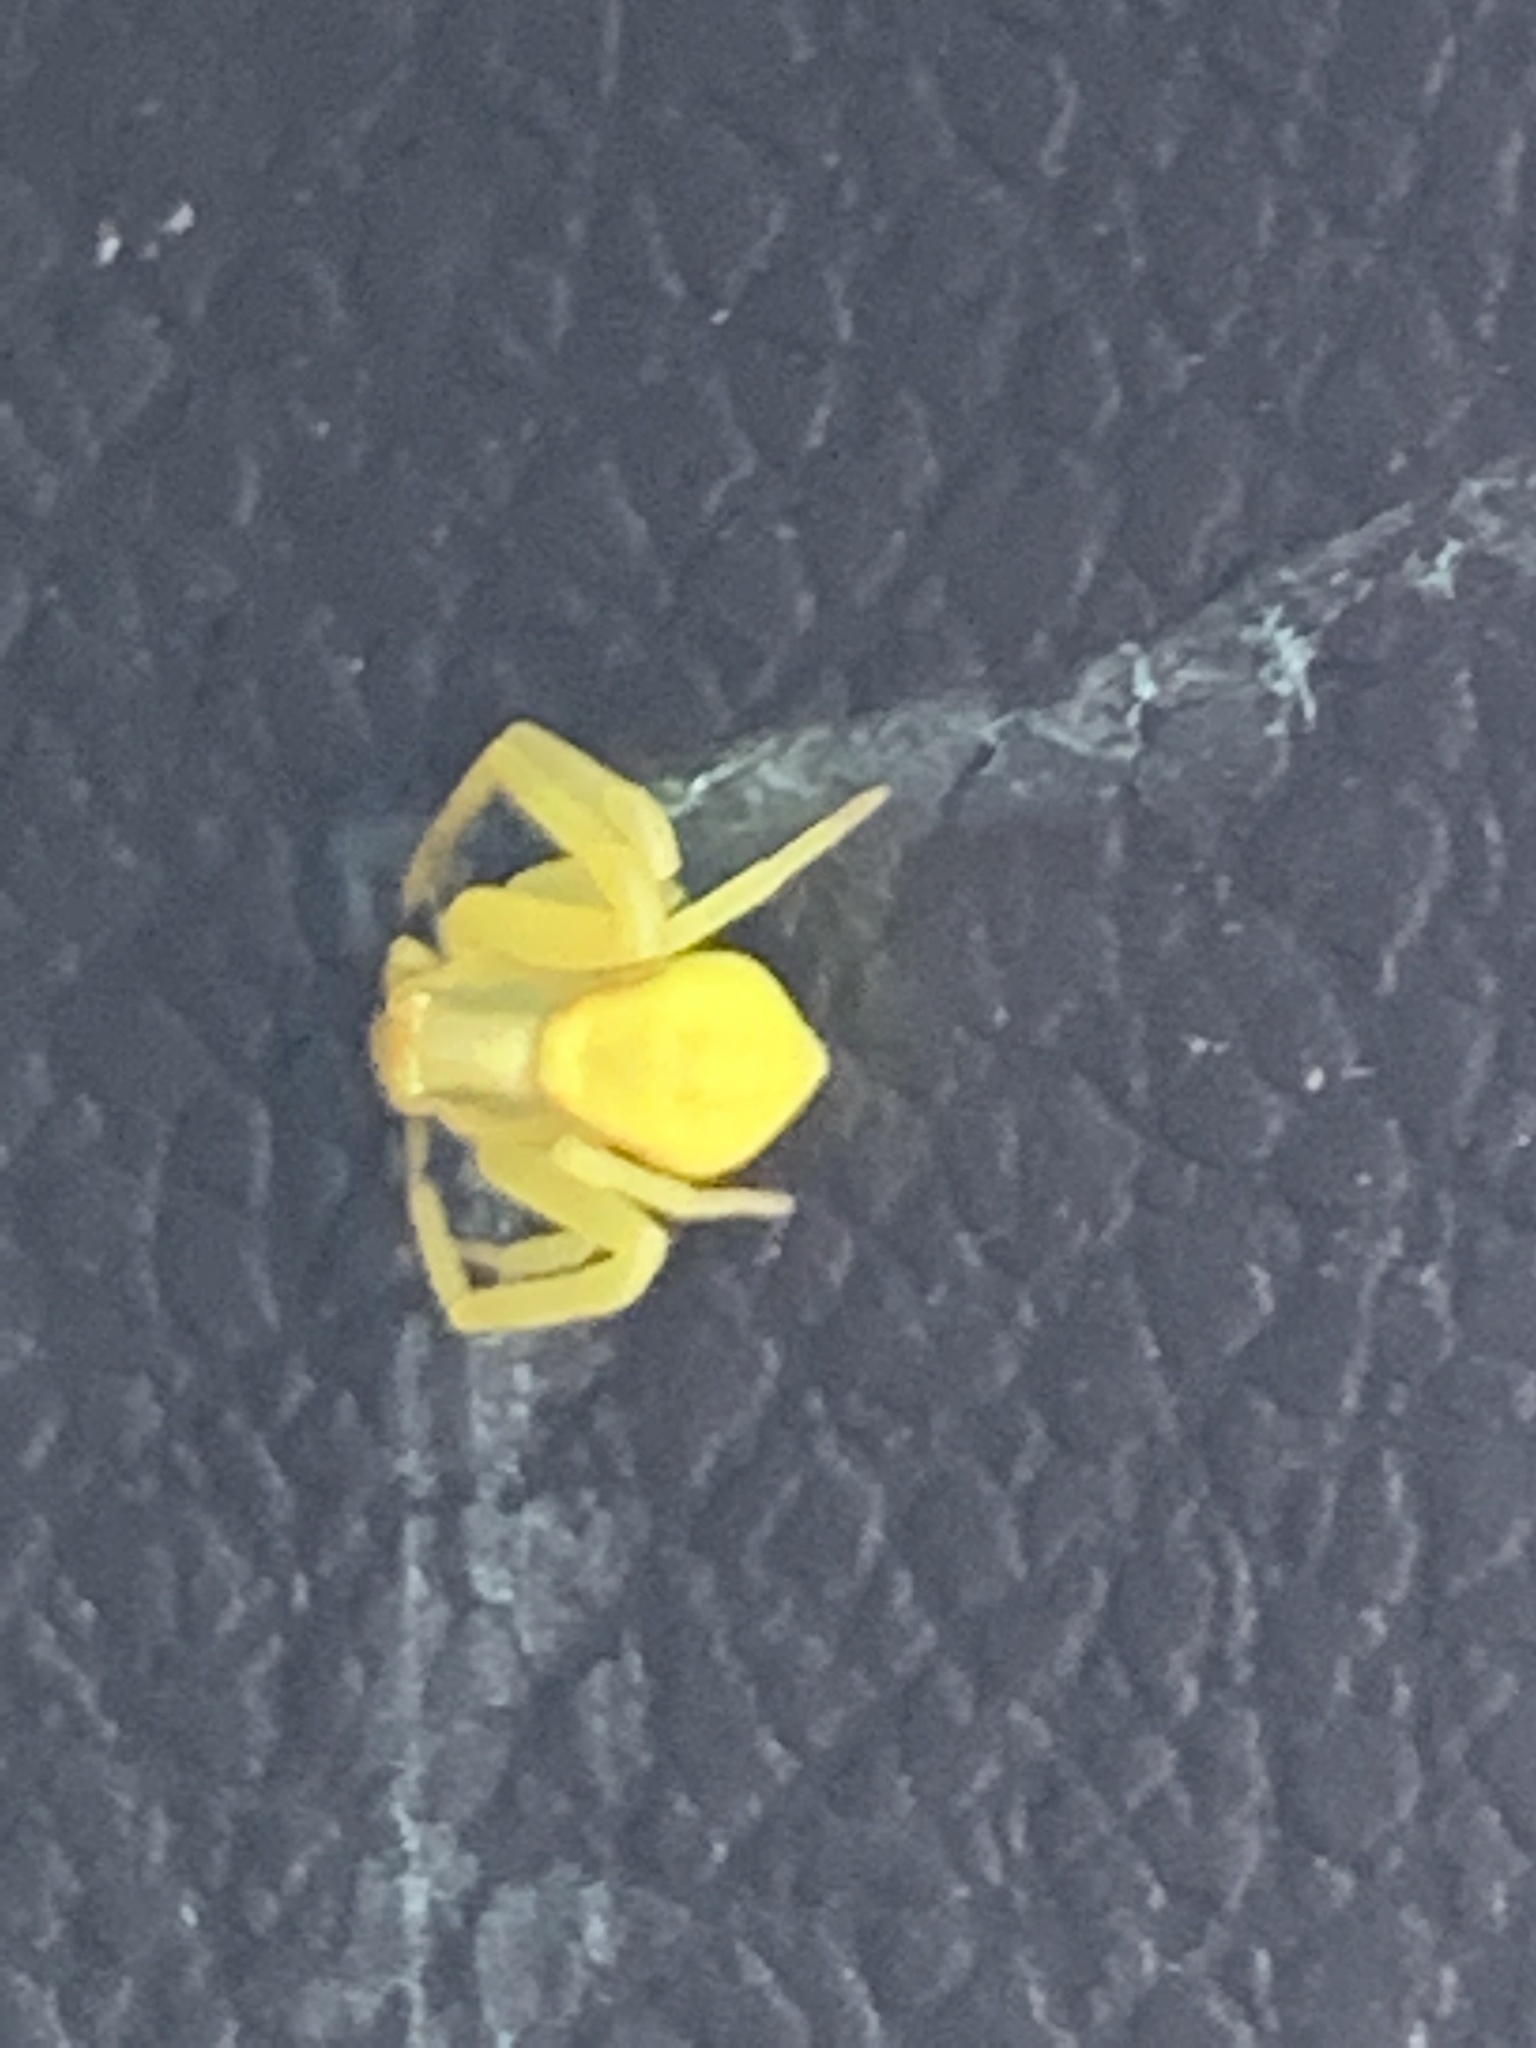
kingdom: Animalia
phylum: Arthropoda
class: Arachnida
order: Araneae
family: Thomisidae
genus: Misumena
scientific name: Misumena vatia
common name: Goldenrod crab spider
